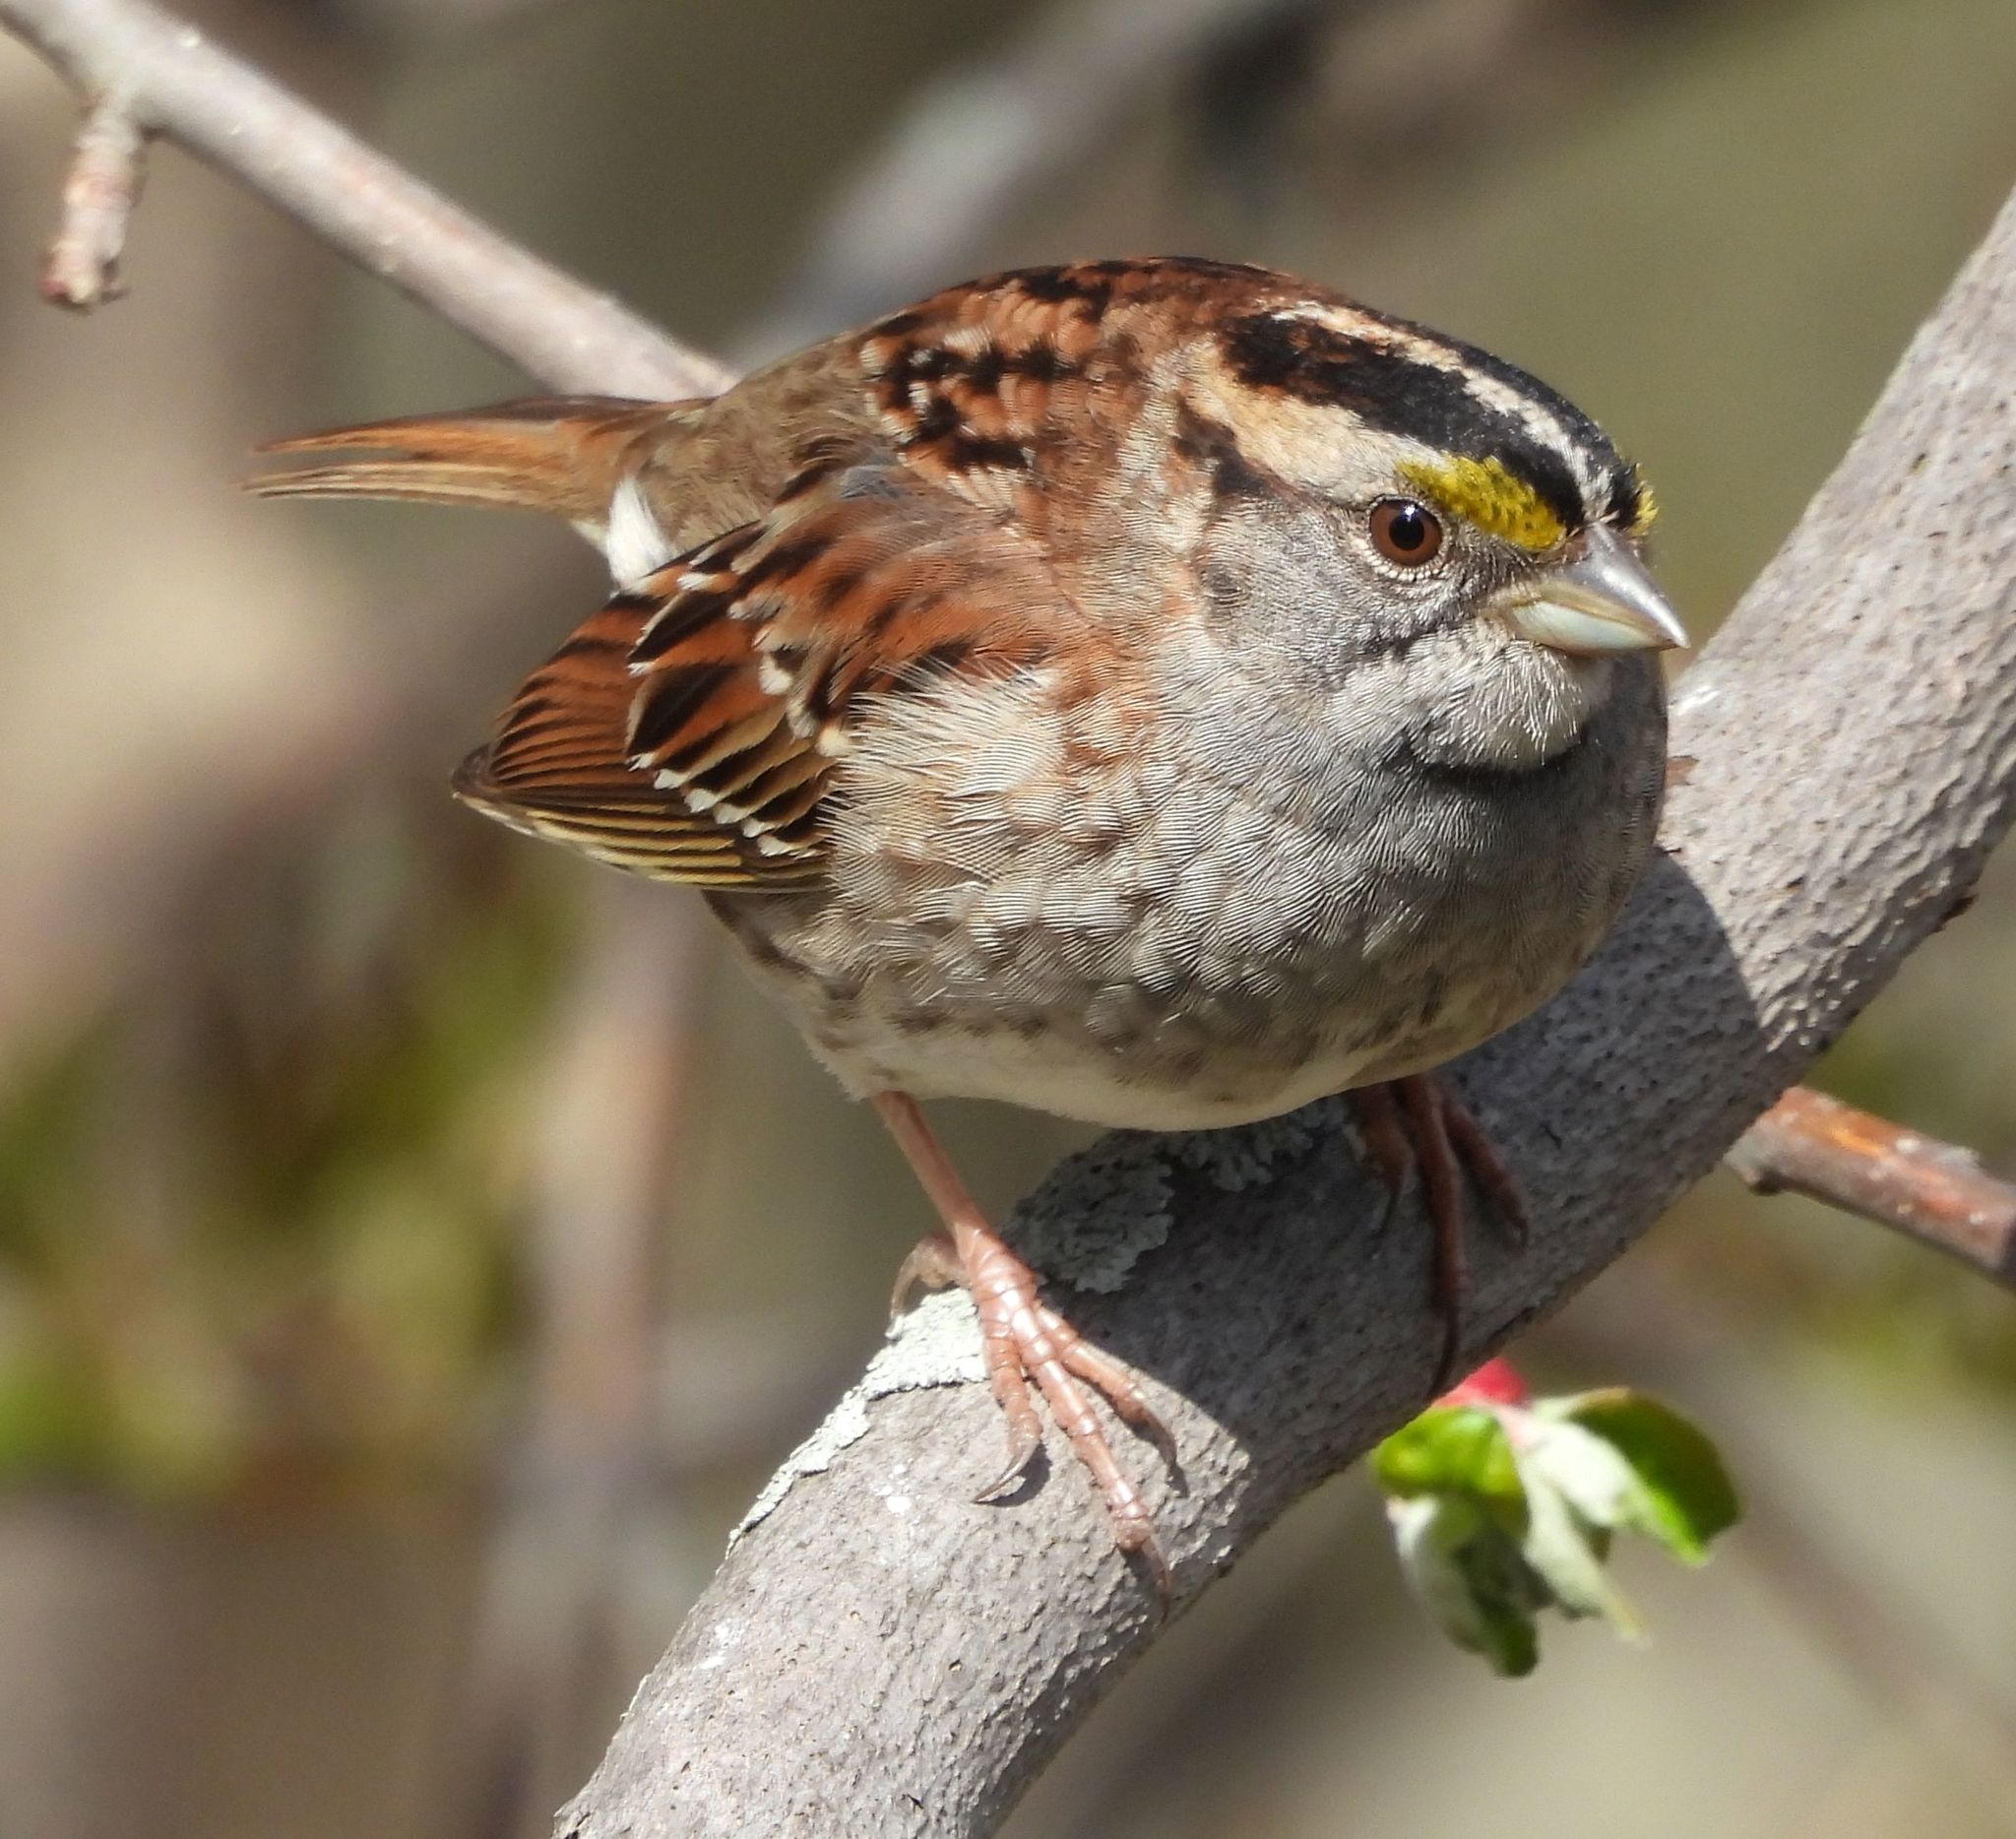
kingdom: Animalia
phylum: Chordata
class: Aves
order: Passeriformes
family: Passerellidae
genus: Zonotrichia
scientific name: Zonotrichia albicollis
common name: White-throated sparrow
